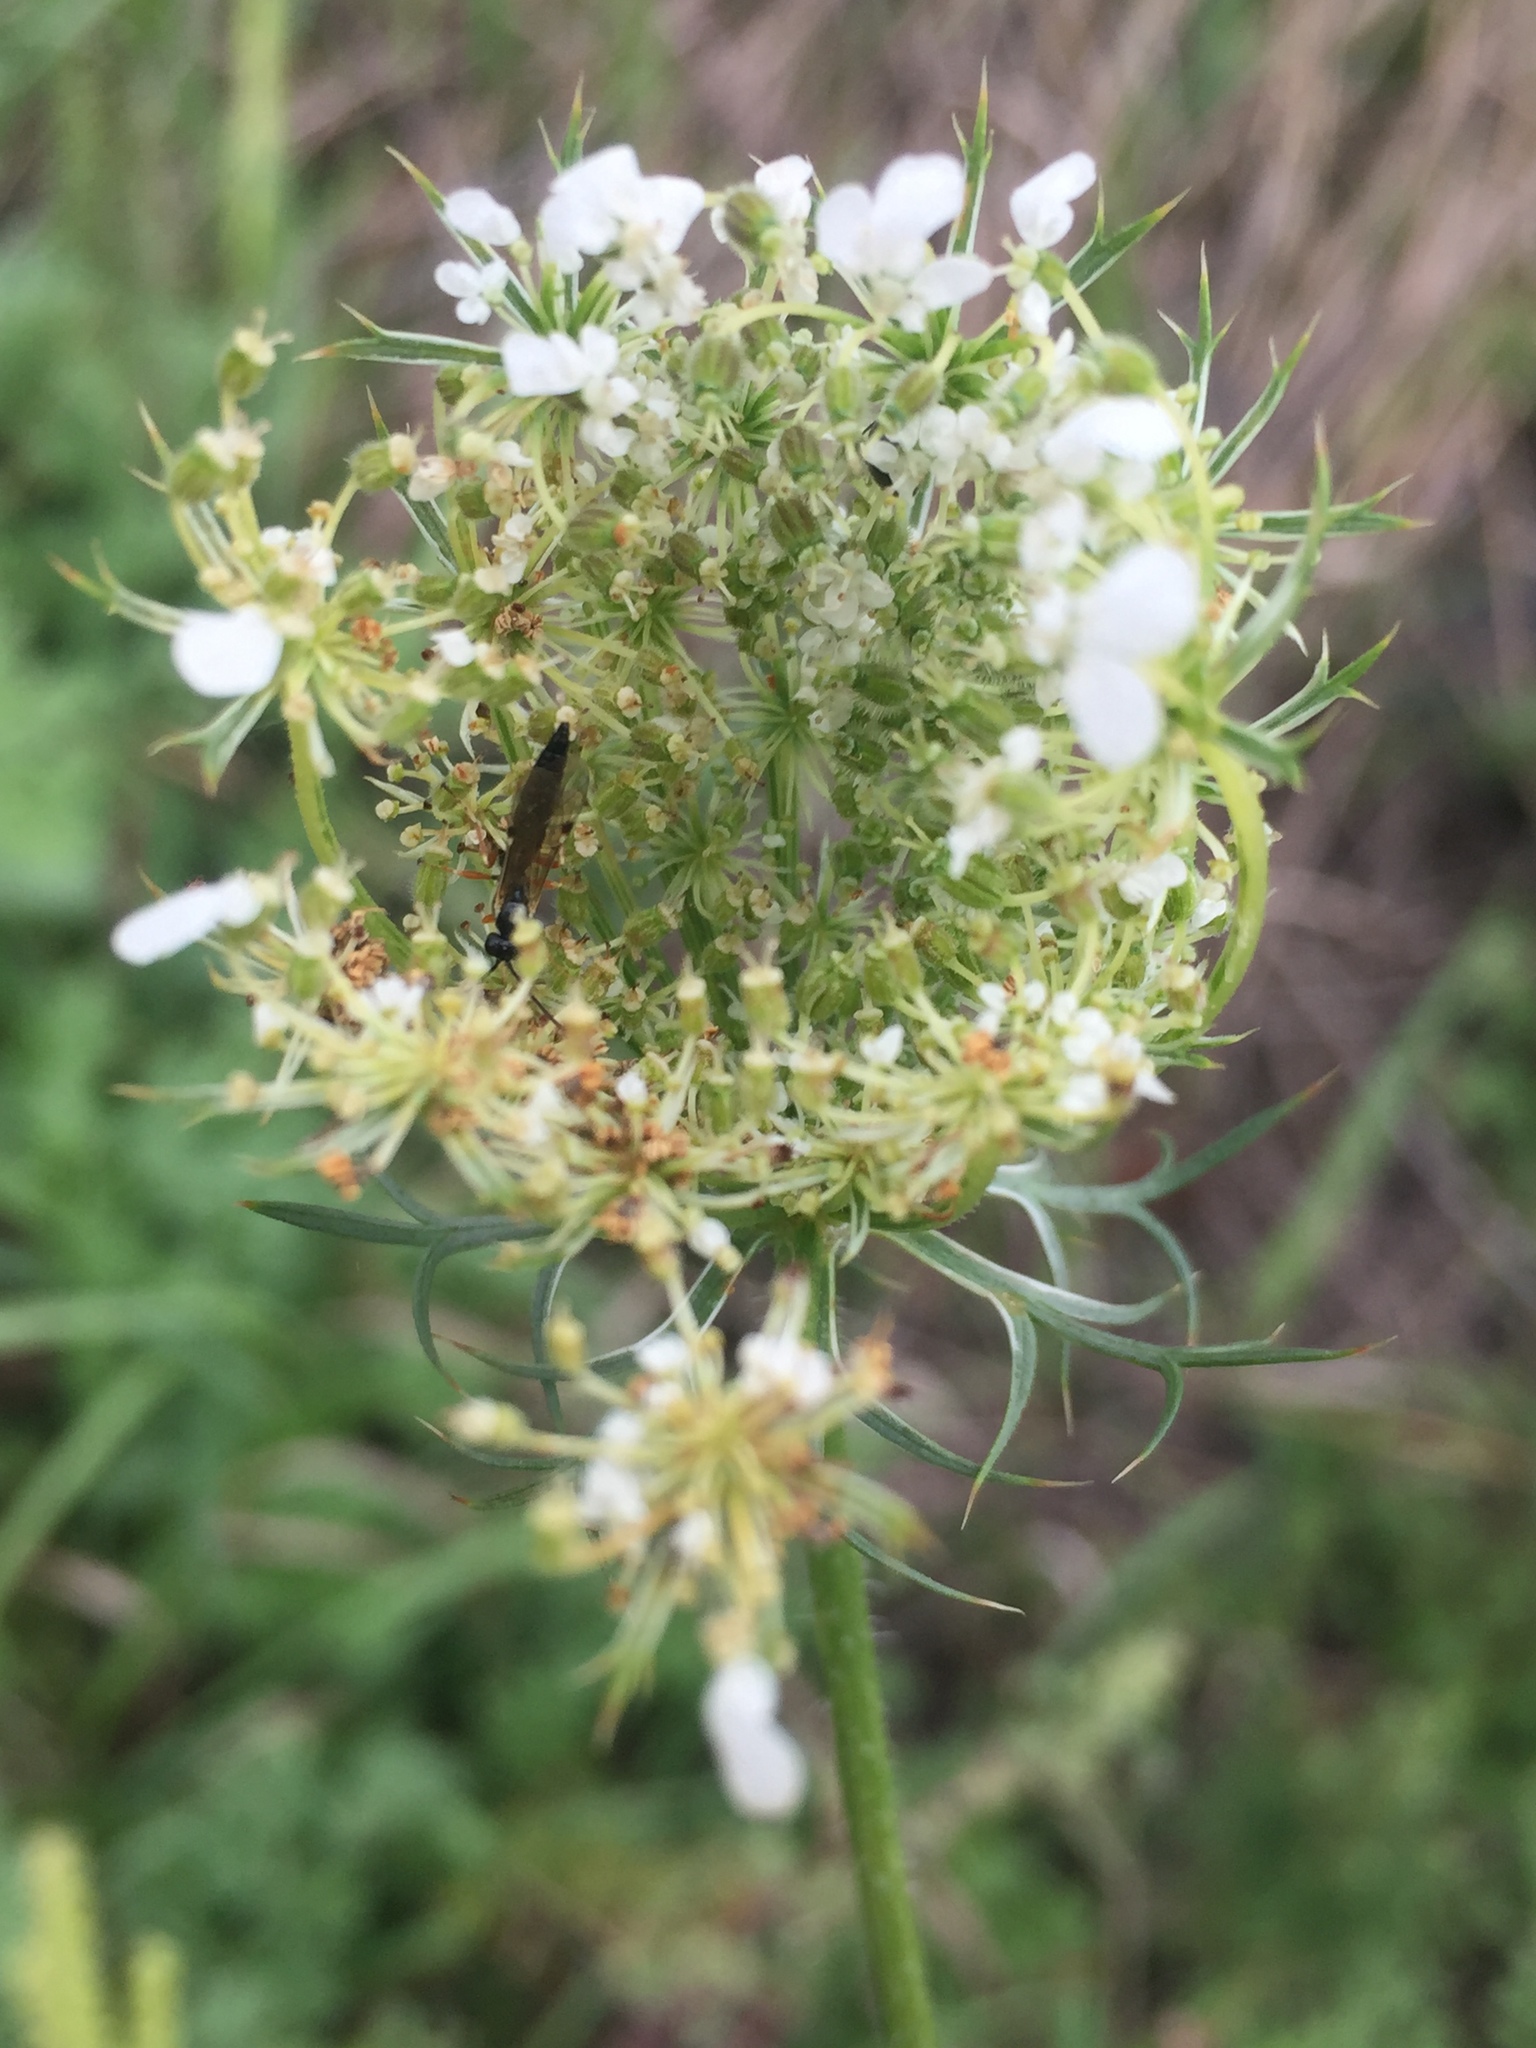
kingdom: Plantae
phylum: Tracheophyta
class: Magnoliopsida
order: Apiales
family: Apiaceae
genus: Daucus
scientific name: Daucus carota
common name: Wild carrot
